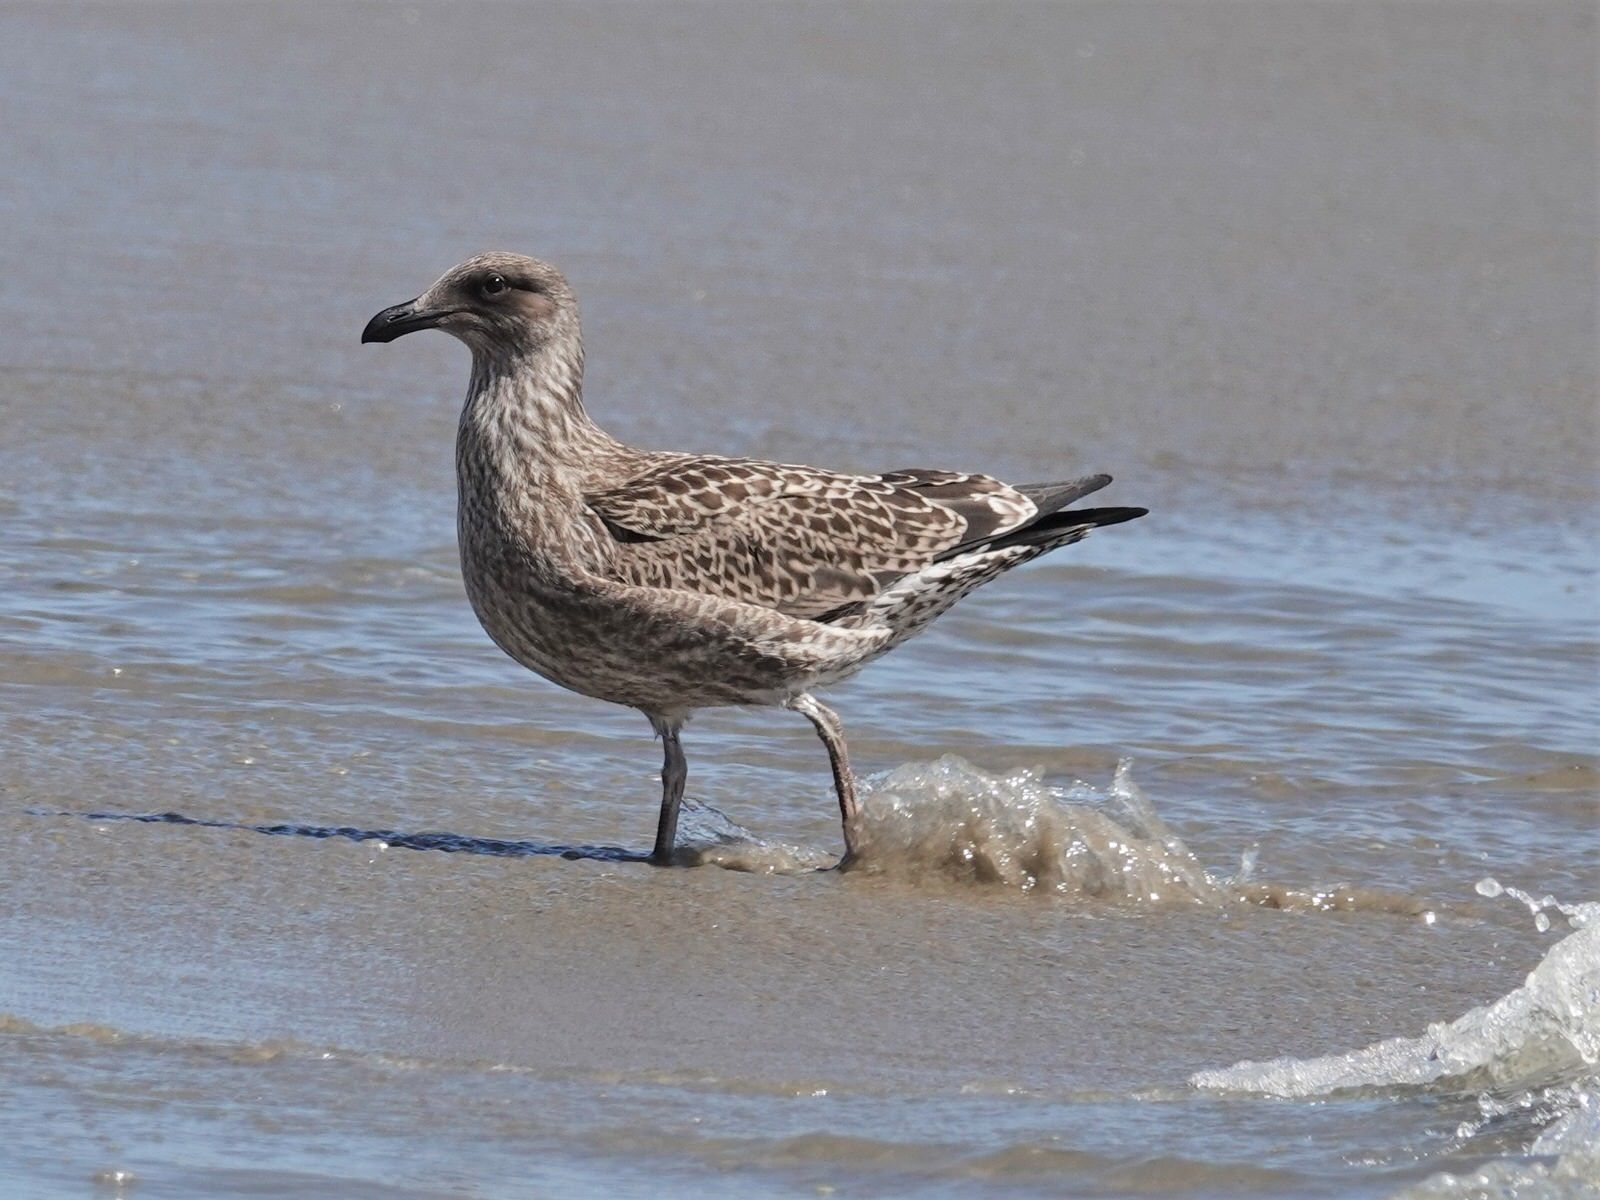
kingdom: Animalia
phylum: Chordata
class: Aves
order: Charadriiformes
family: Laridae
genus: Larus
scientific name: Larus dominicanus
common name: Kelp gull
